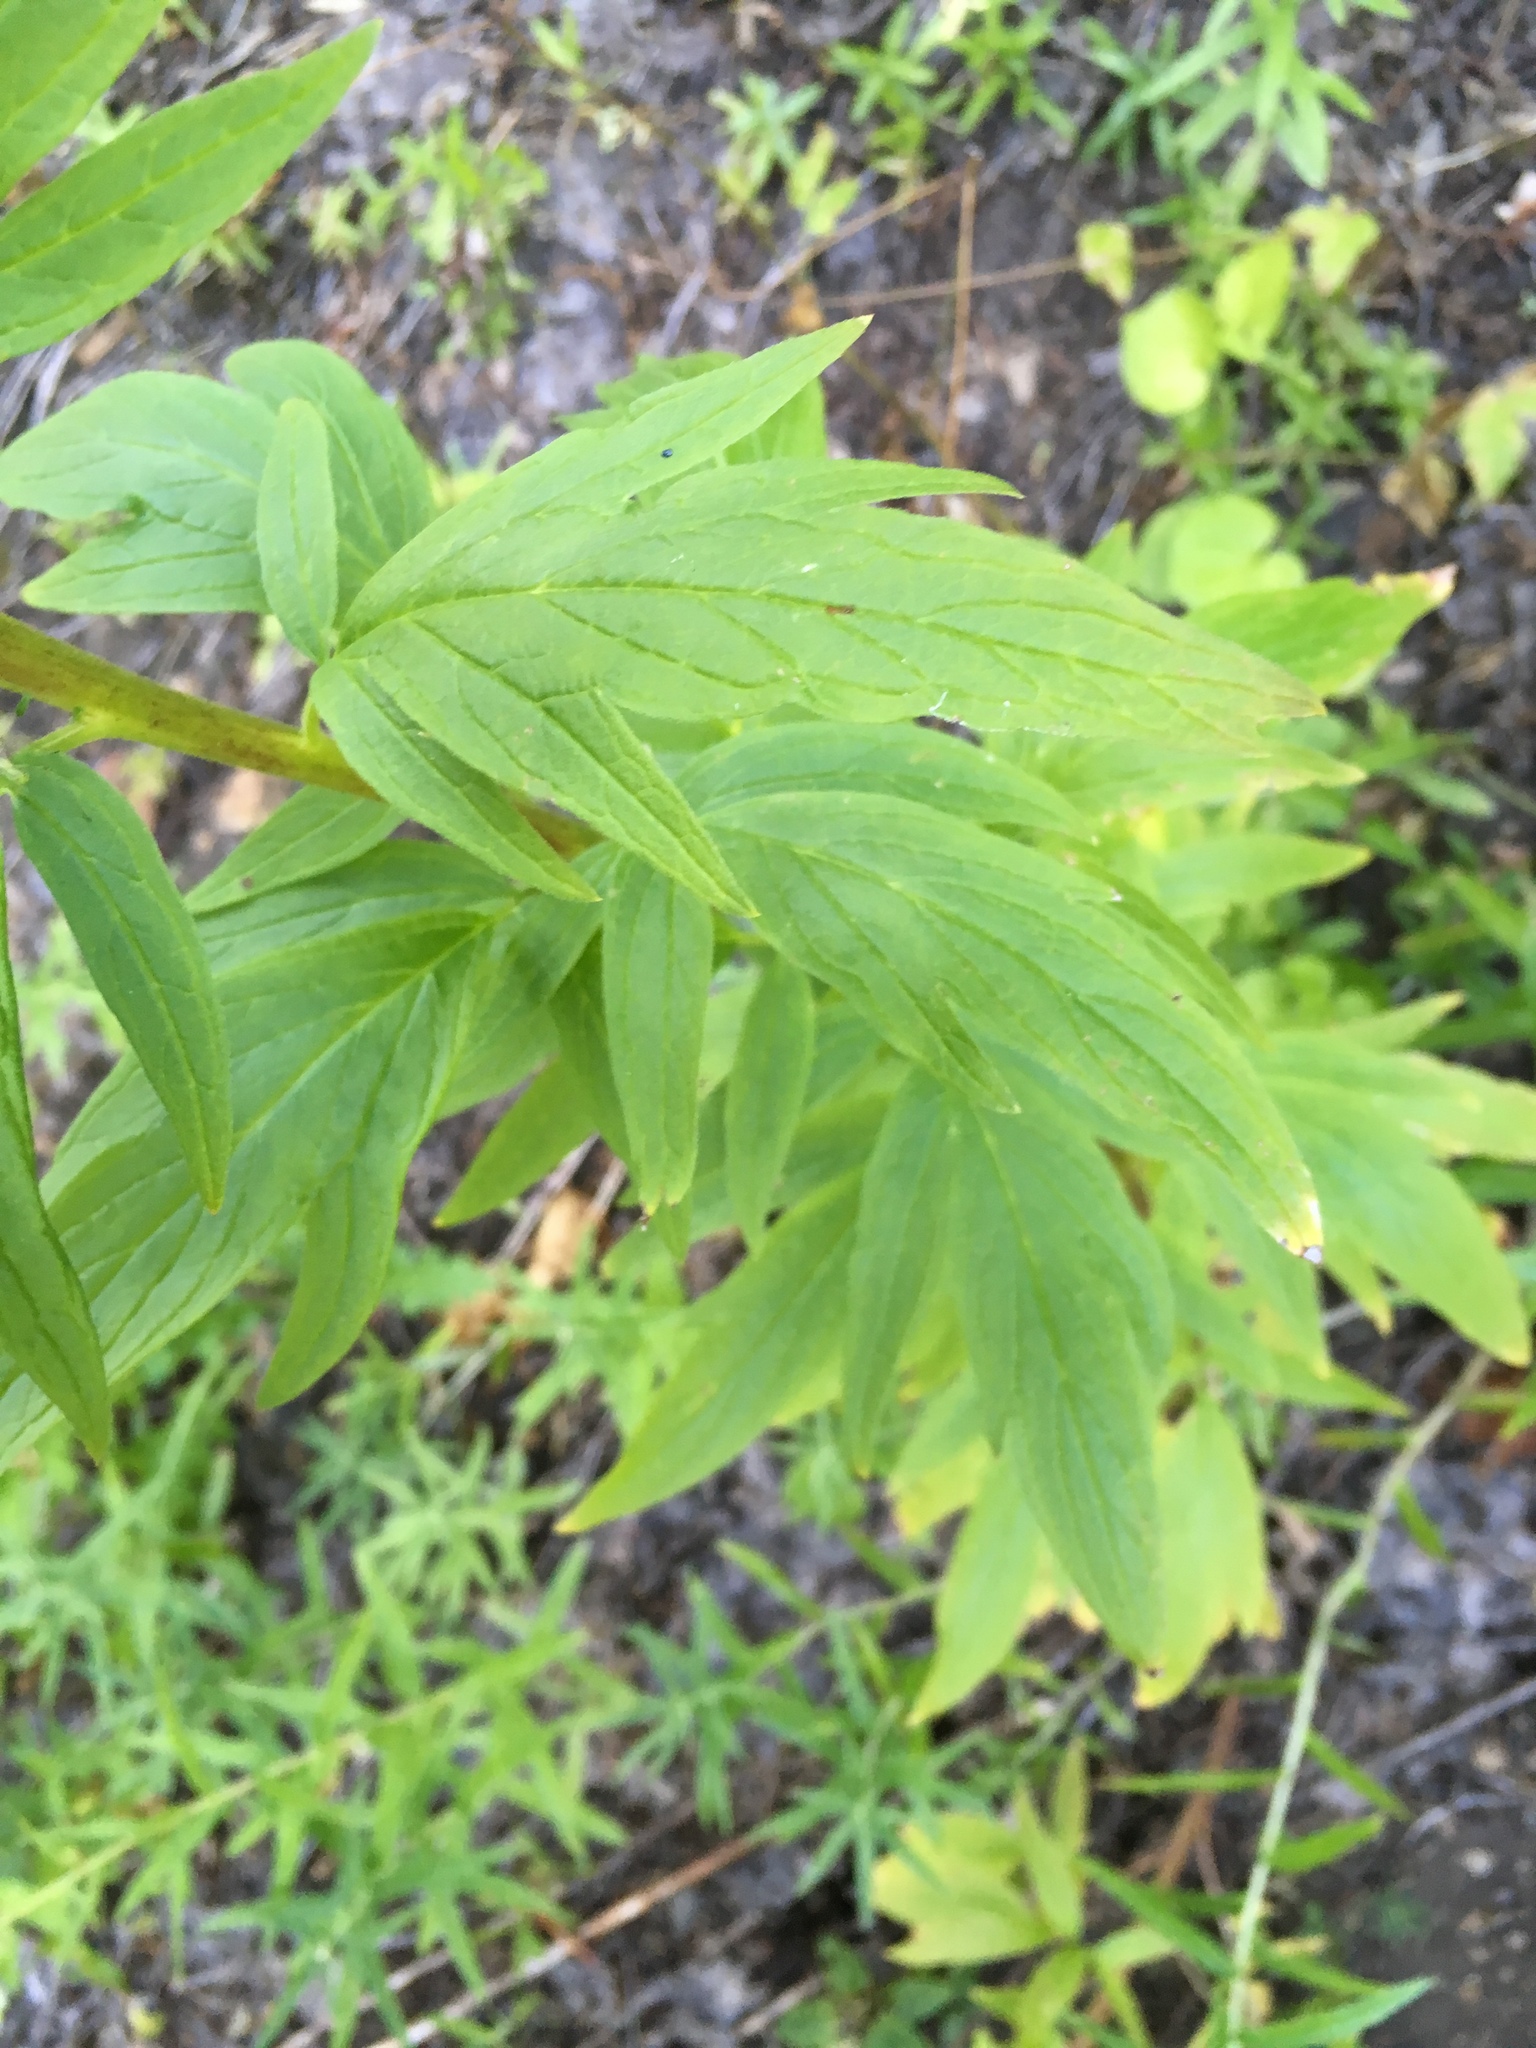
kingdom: Plantae
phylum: Tracheophyta
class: Magnoliopsida
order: Boraginales
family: Hydrophyllaceae
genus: Phacelia
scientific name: Phacelia procera
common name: Tall phacelia
